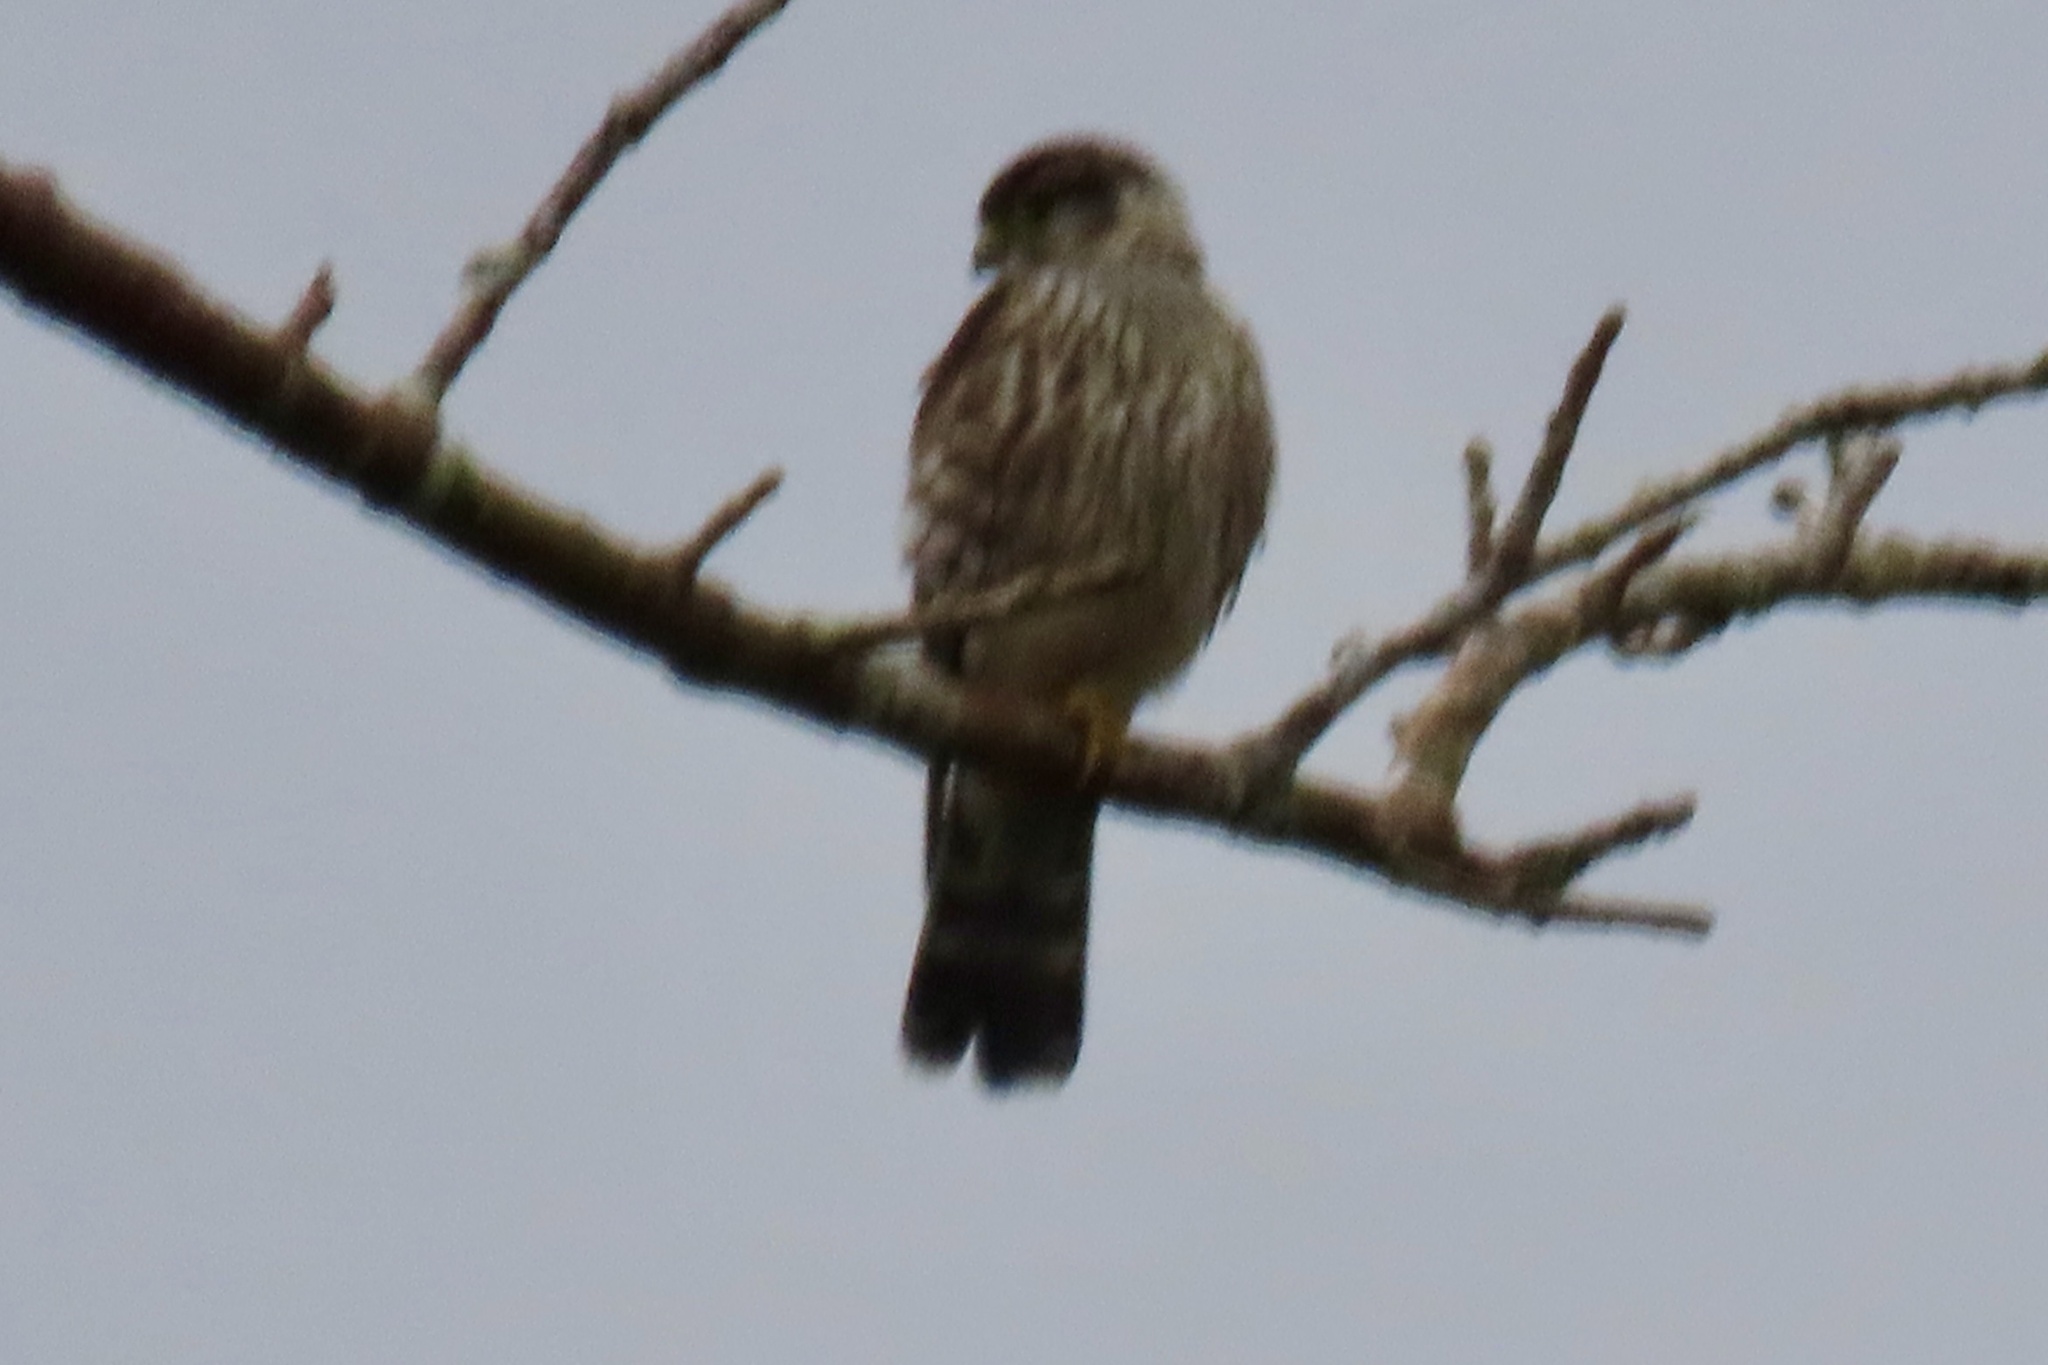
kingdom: Animalia
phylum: Chordata
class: Aves
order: Falconiformes
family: Falconidae
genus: Falco
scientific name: Falco columbarius
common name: Merlin
